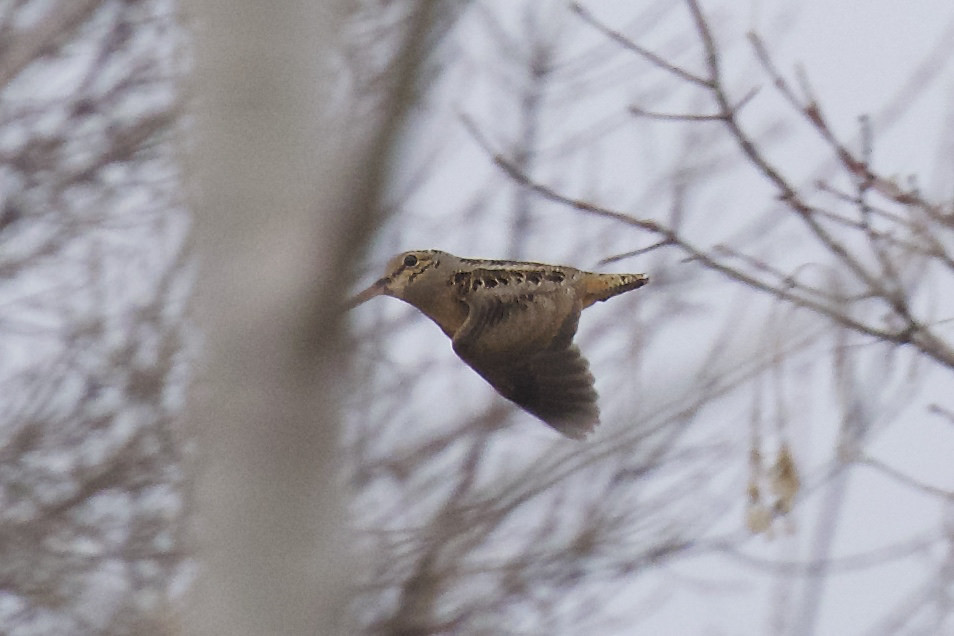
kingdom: Animalia
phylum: Chordata
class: Aves
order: Charadriiformes
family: Scolopacidae
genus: Scolopax
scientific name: Scolopax minor
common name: American woodcock
